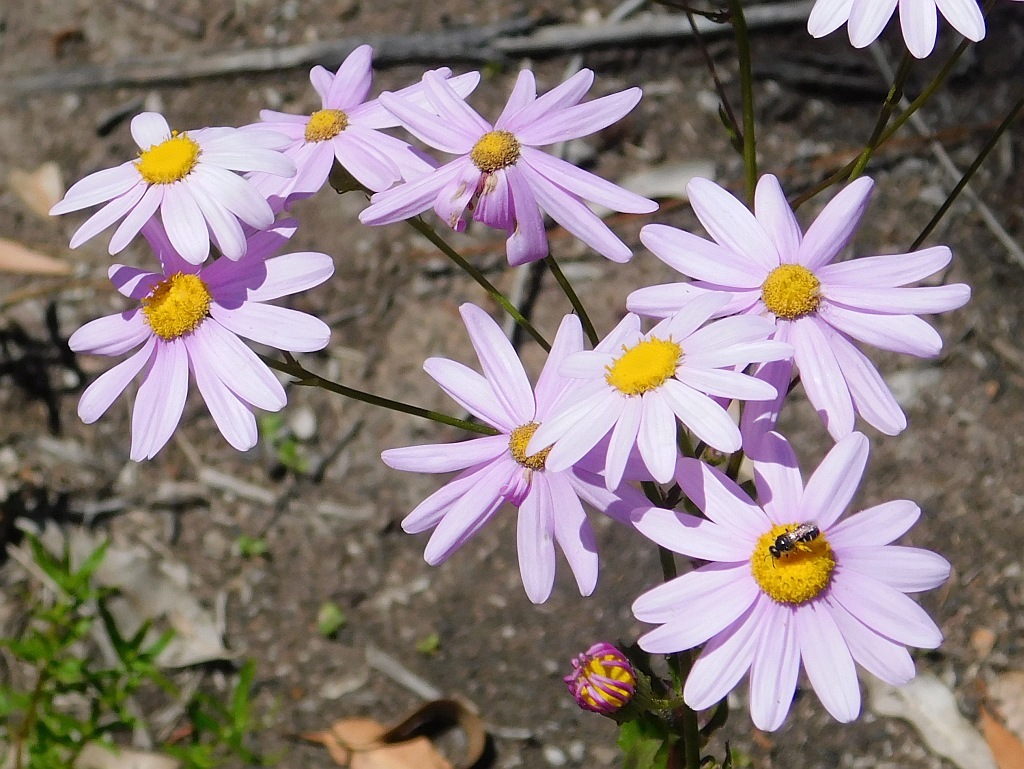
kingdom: Plantae
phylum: Tracheophyta
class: Magnoliopsida
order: Asterales
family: Asteraceae
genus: Senecio
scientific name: Senecio glastifolius
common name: Woad-leaved ragwort
